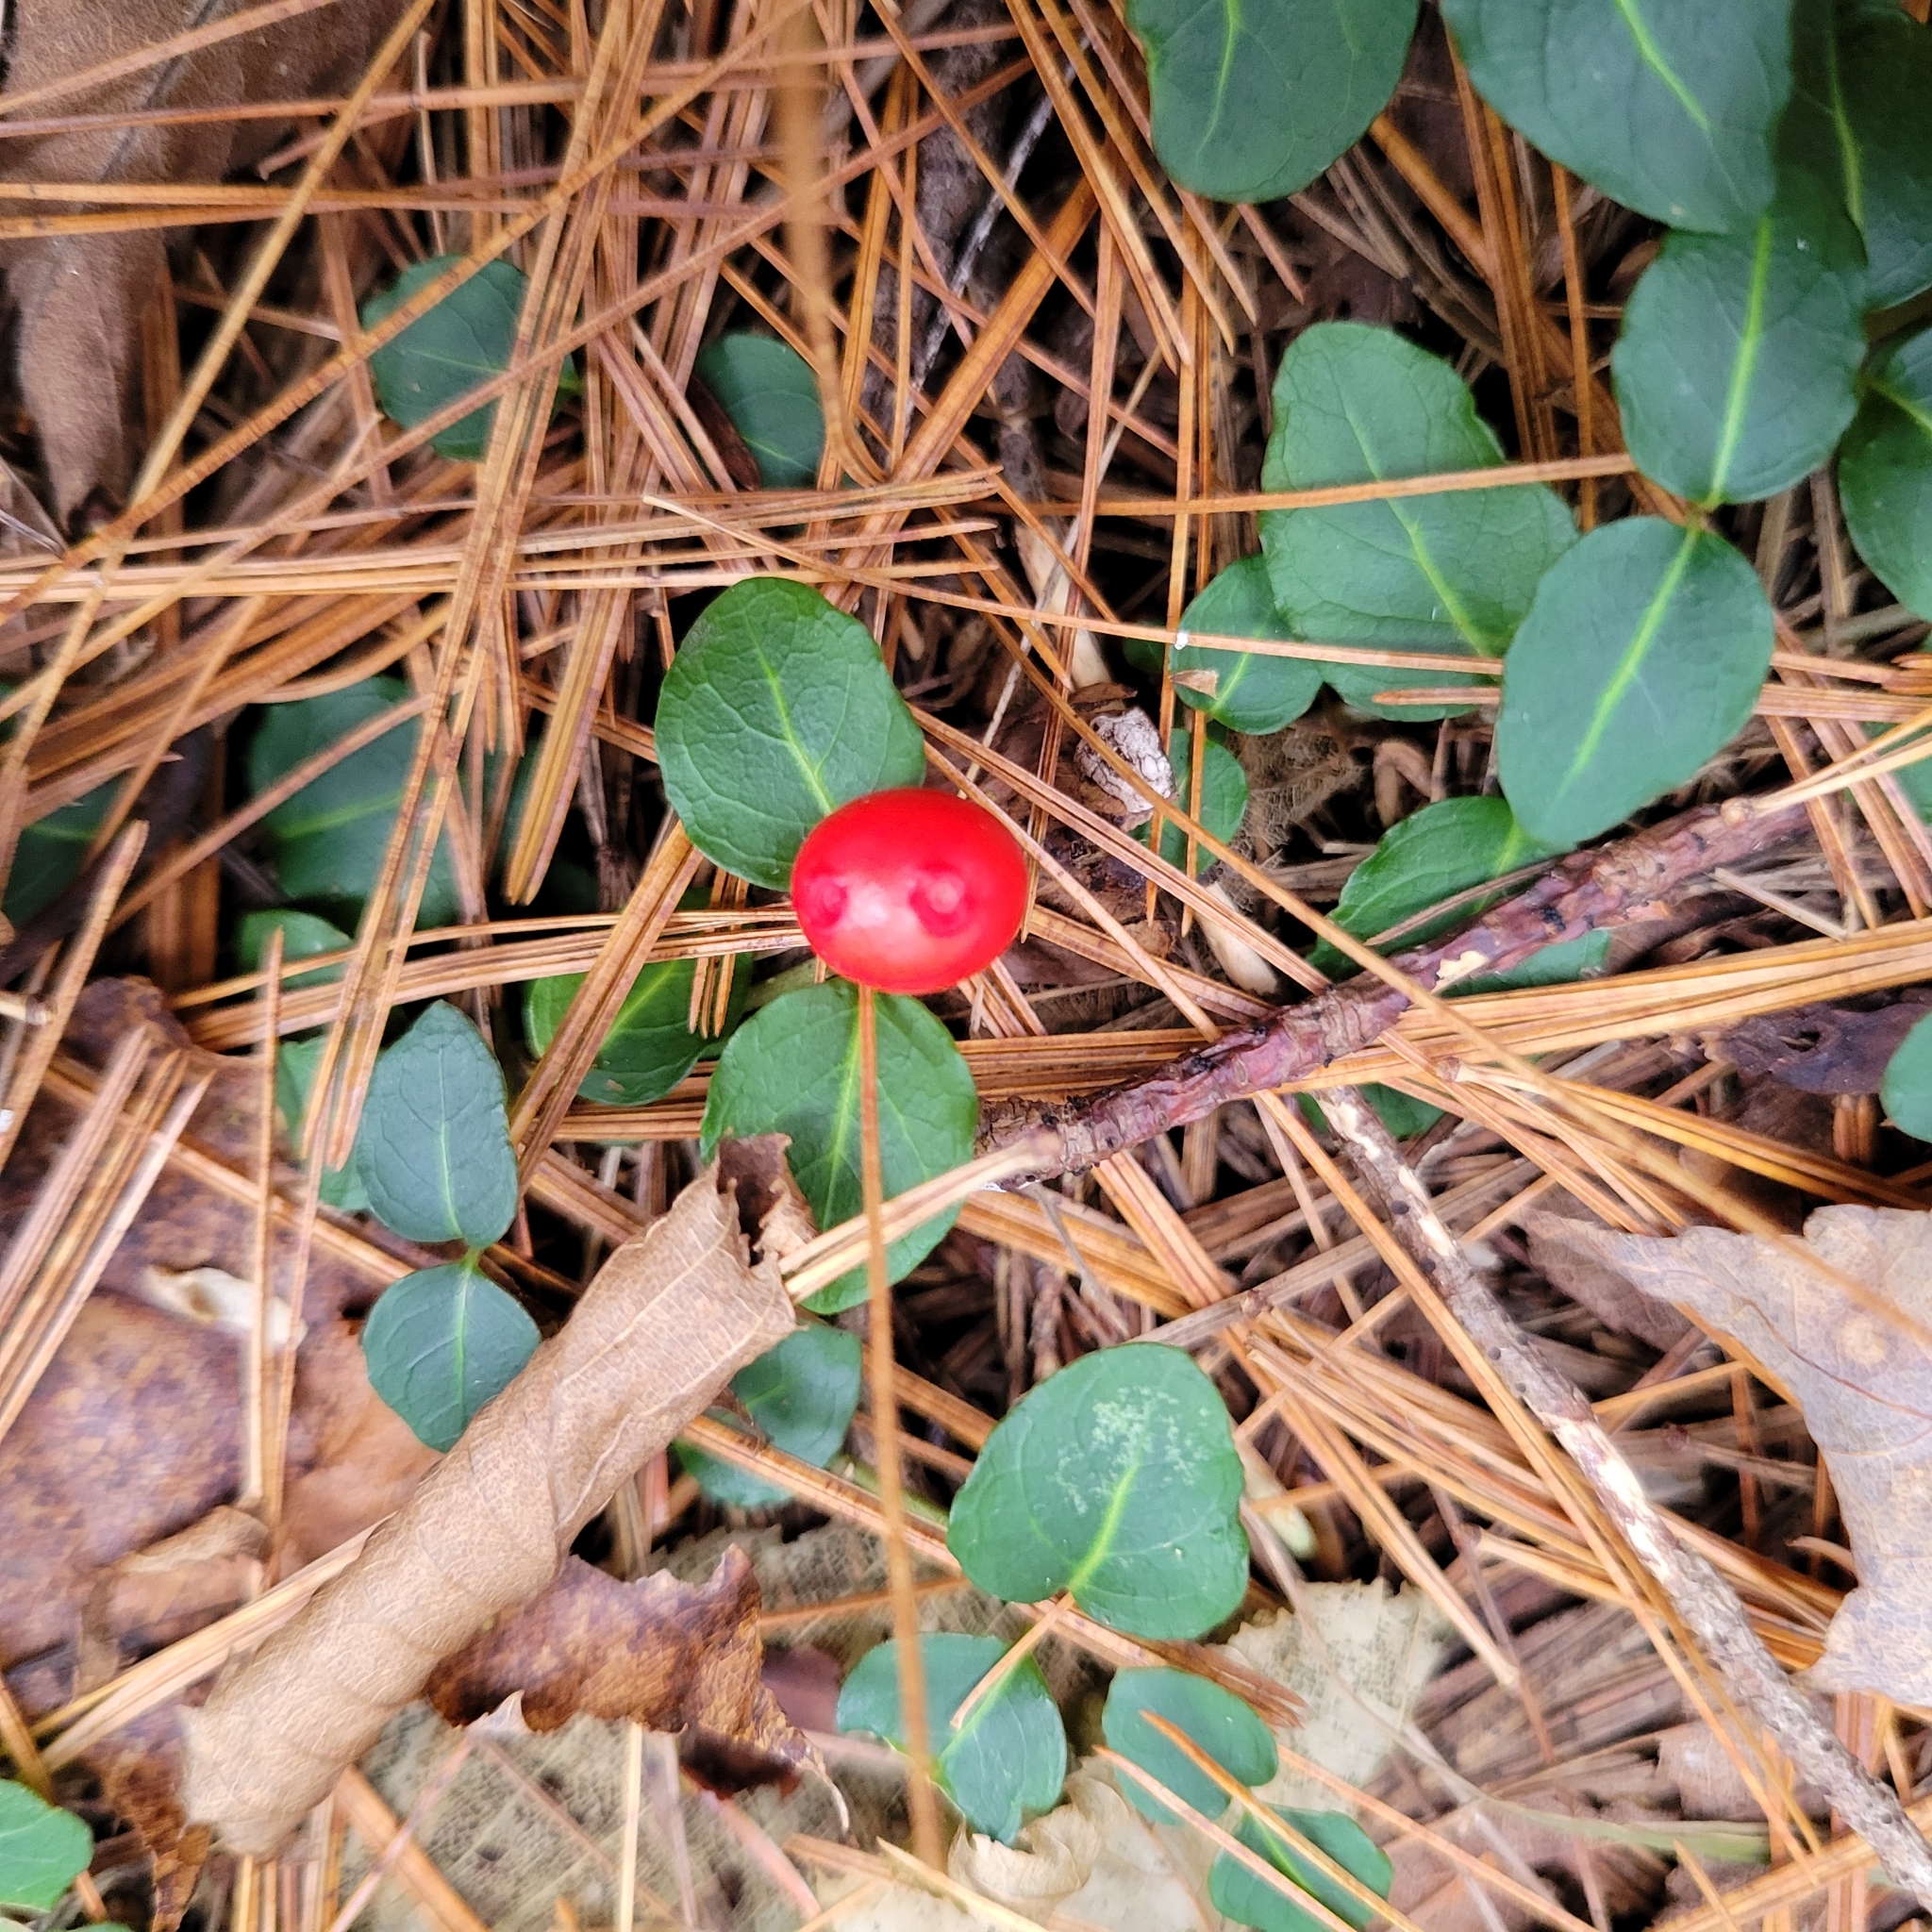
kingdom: Plantae
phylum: Tracheophyta
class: Magnoliopsida
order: Gentianales
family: Rubiaceae
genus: Mitchella
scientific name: Mitchella repens
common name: Partridge-berry
